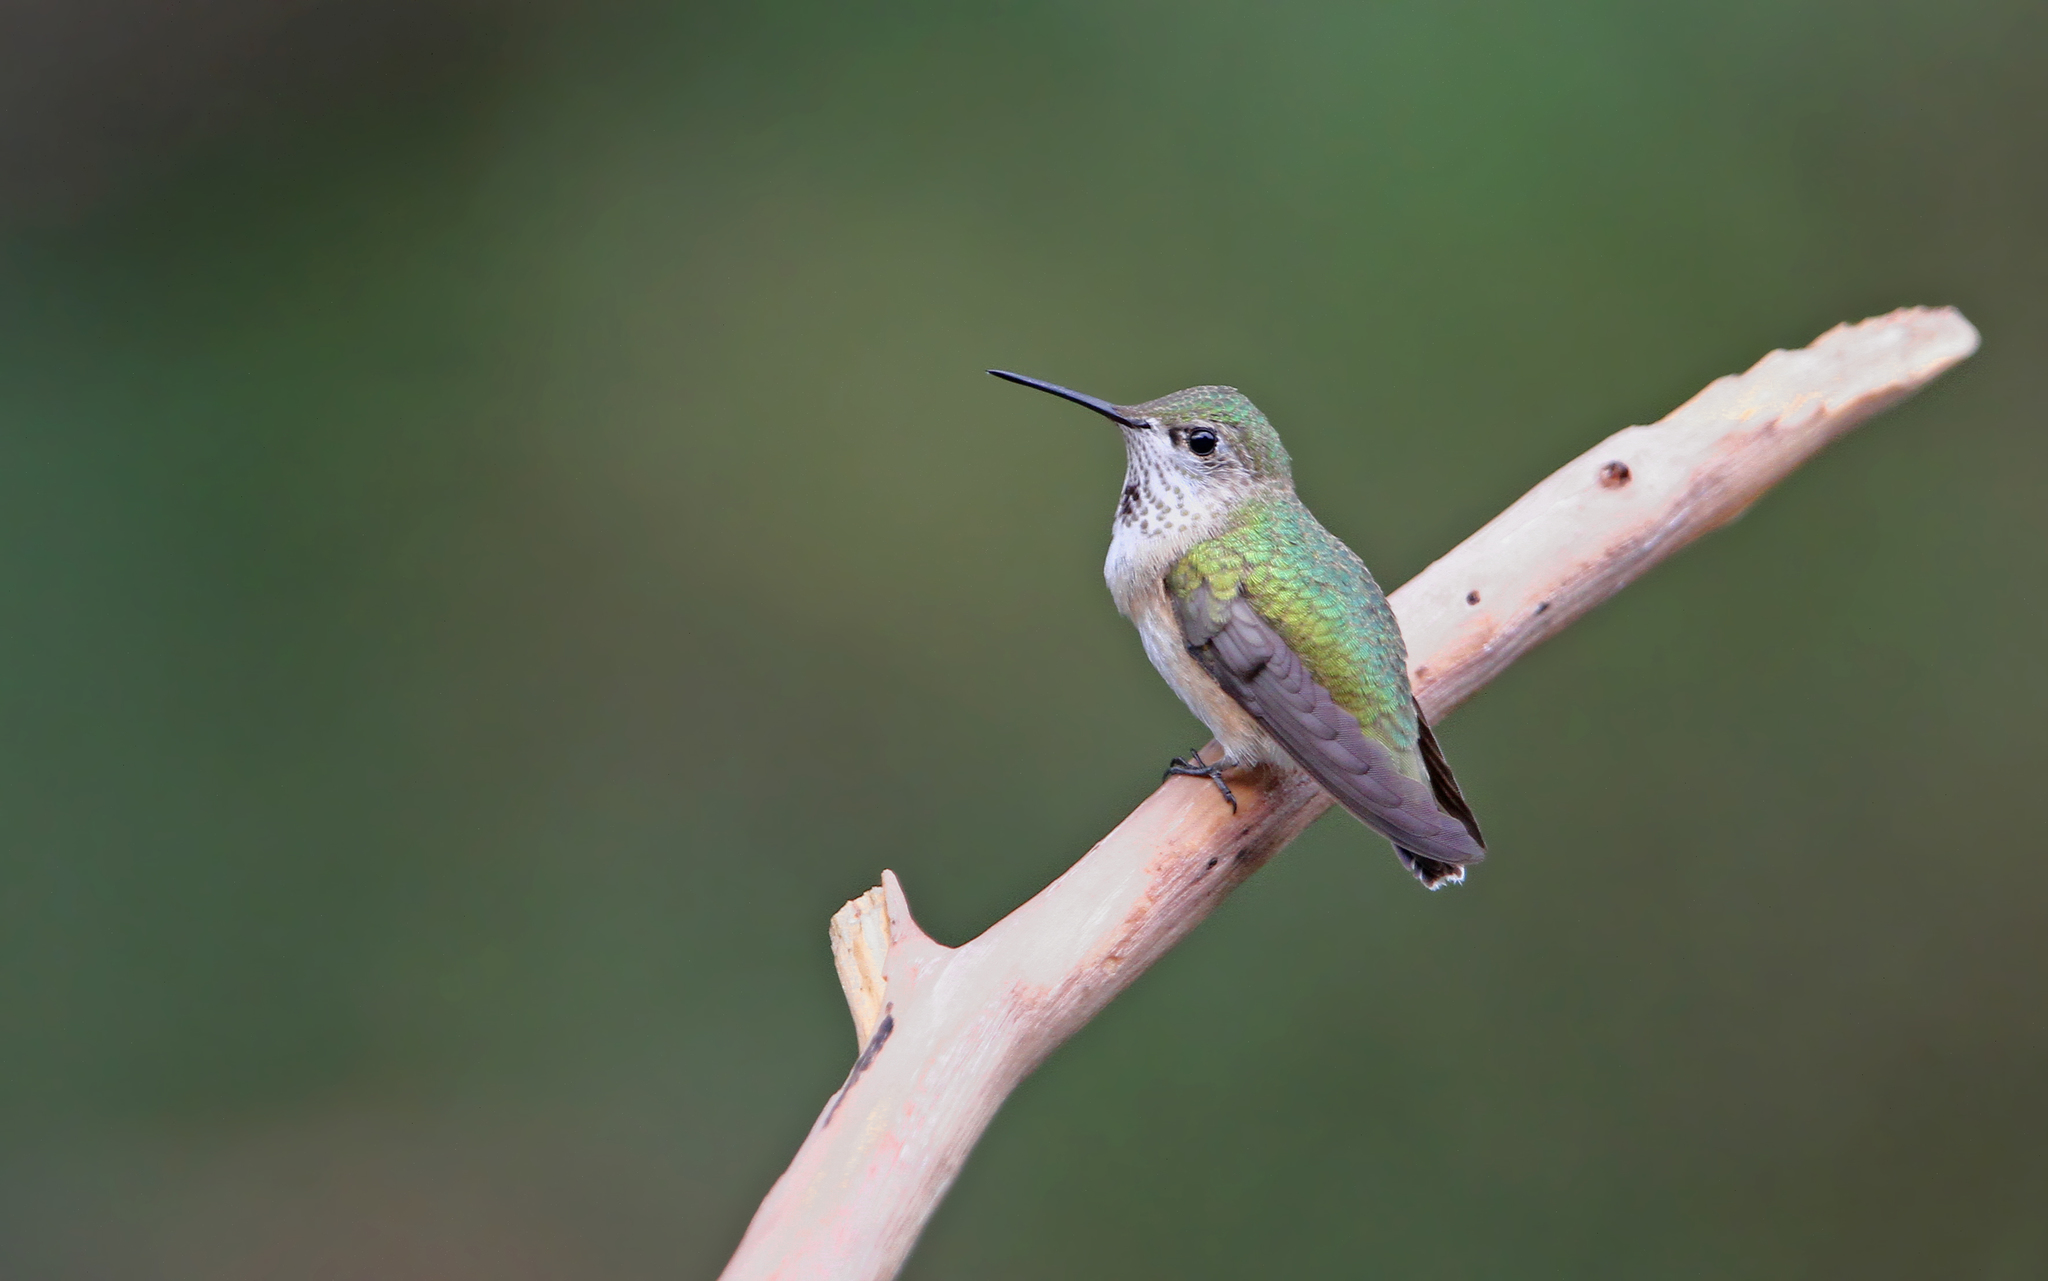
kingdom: Animalia
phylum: Chordata
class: Aves
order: Apodiformes
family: Trochilidae
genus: Selasphorus
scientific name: Selasphorus calliope
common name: Calliope hummingbird
